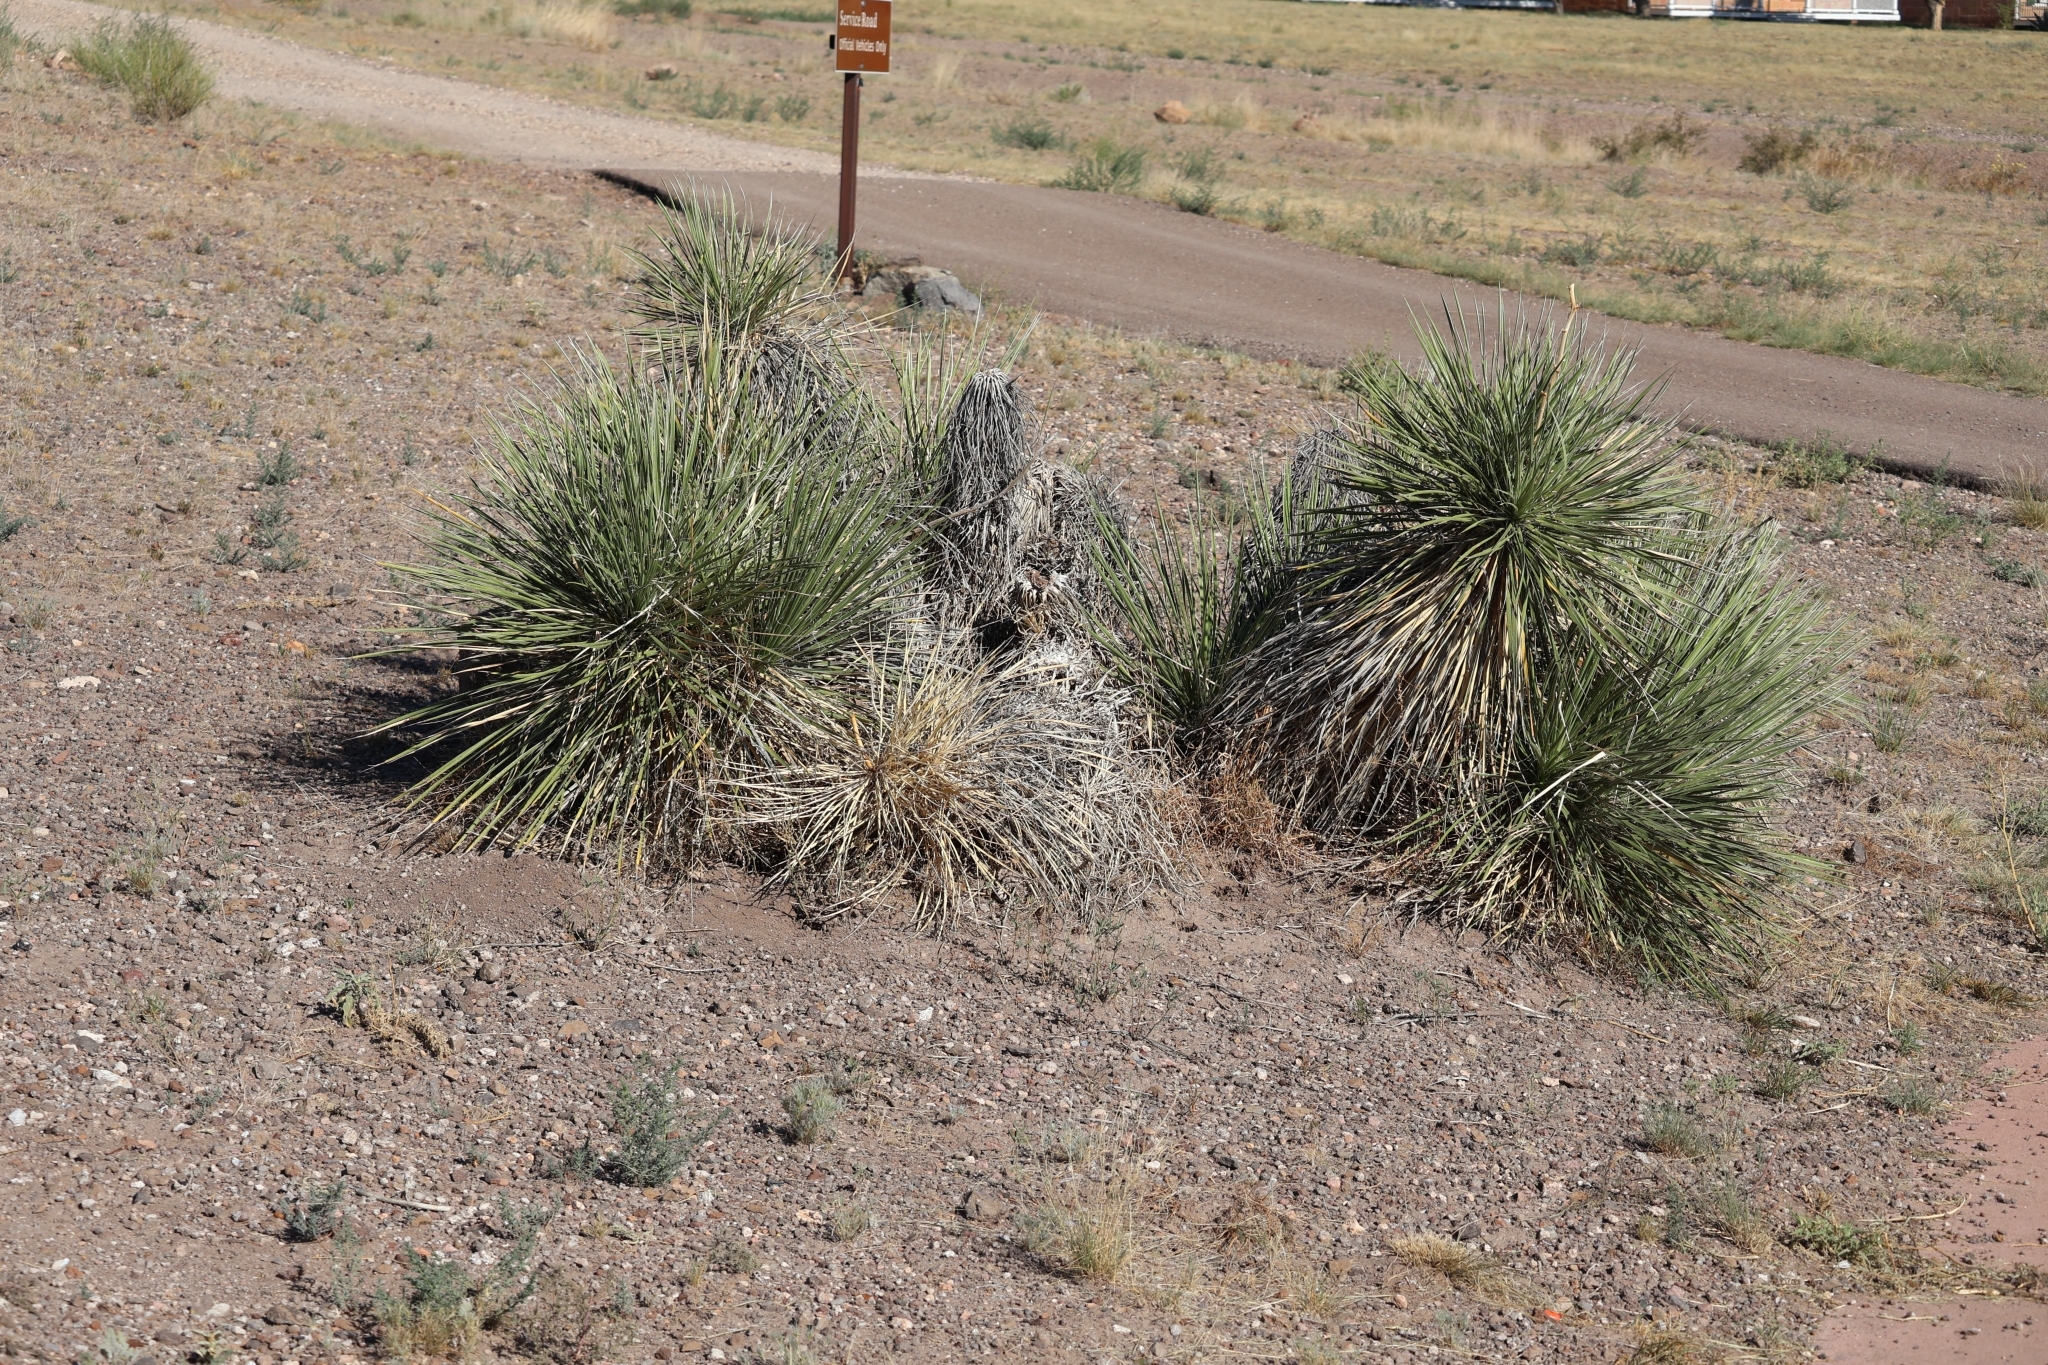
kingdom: Plantae
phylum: Tracheophyta
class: Liliopsida
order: Asparagales
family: Asparagaceae
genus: Yucca
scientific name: Yucca elata
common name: Palmella
